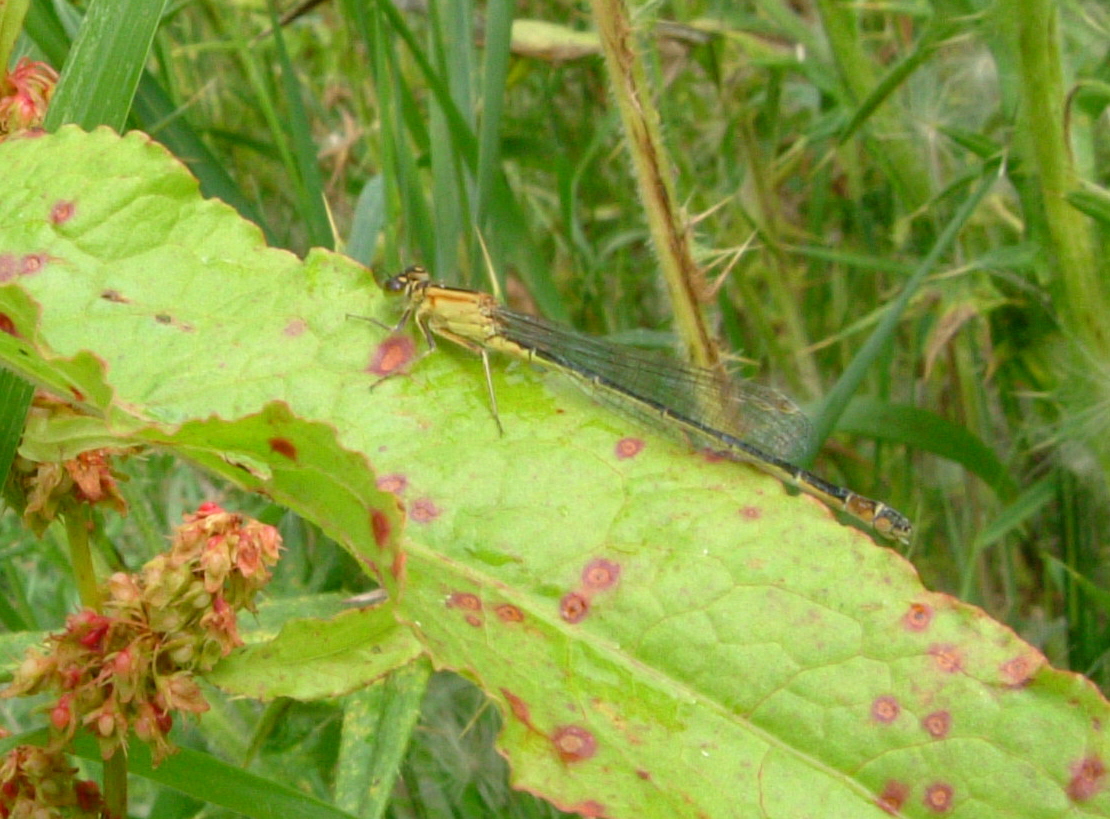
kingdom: Animalia
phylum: Arthropoda
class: Insecta
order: Odonata
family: Coenagrionidae
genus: Ischnura
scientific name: Ischnura elegans
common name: Blue-tailed damselfly
